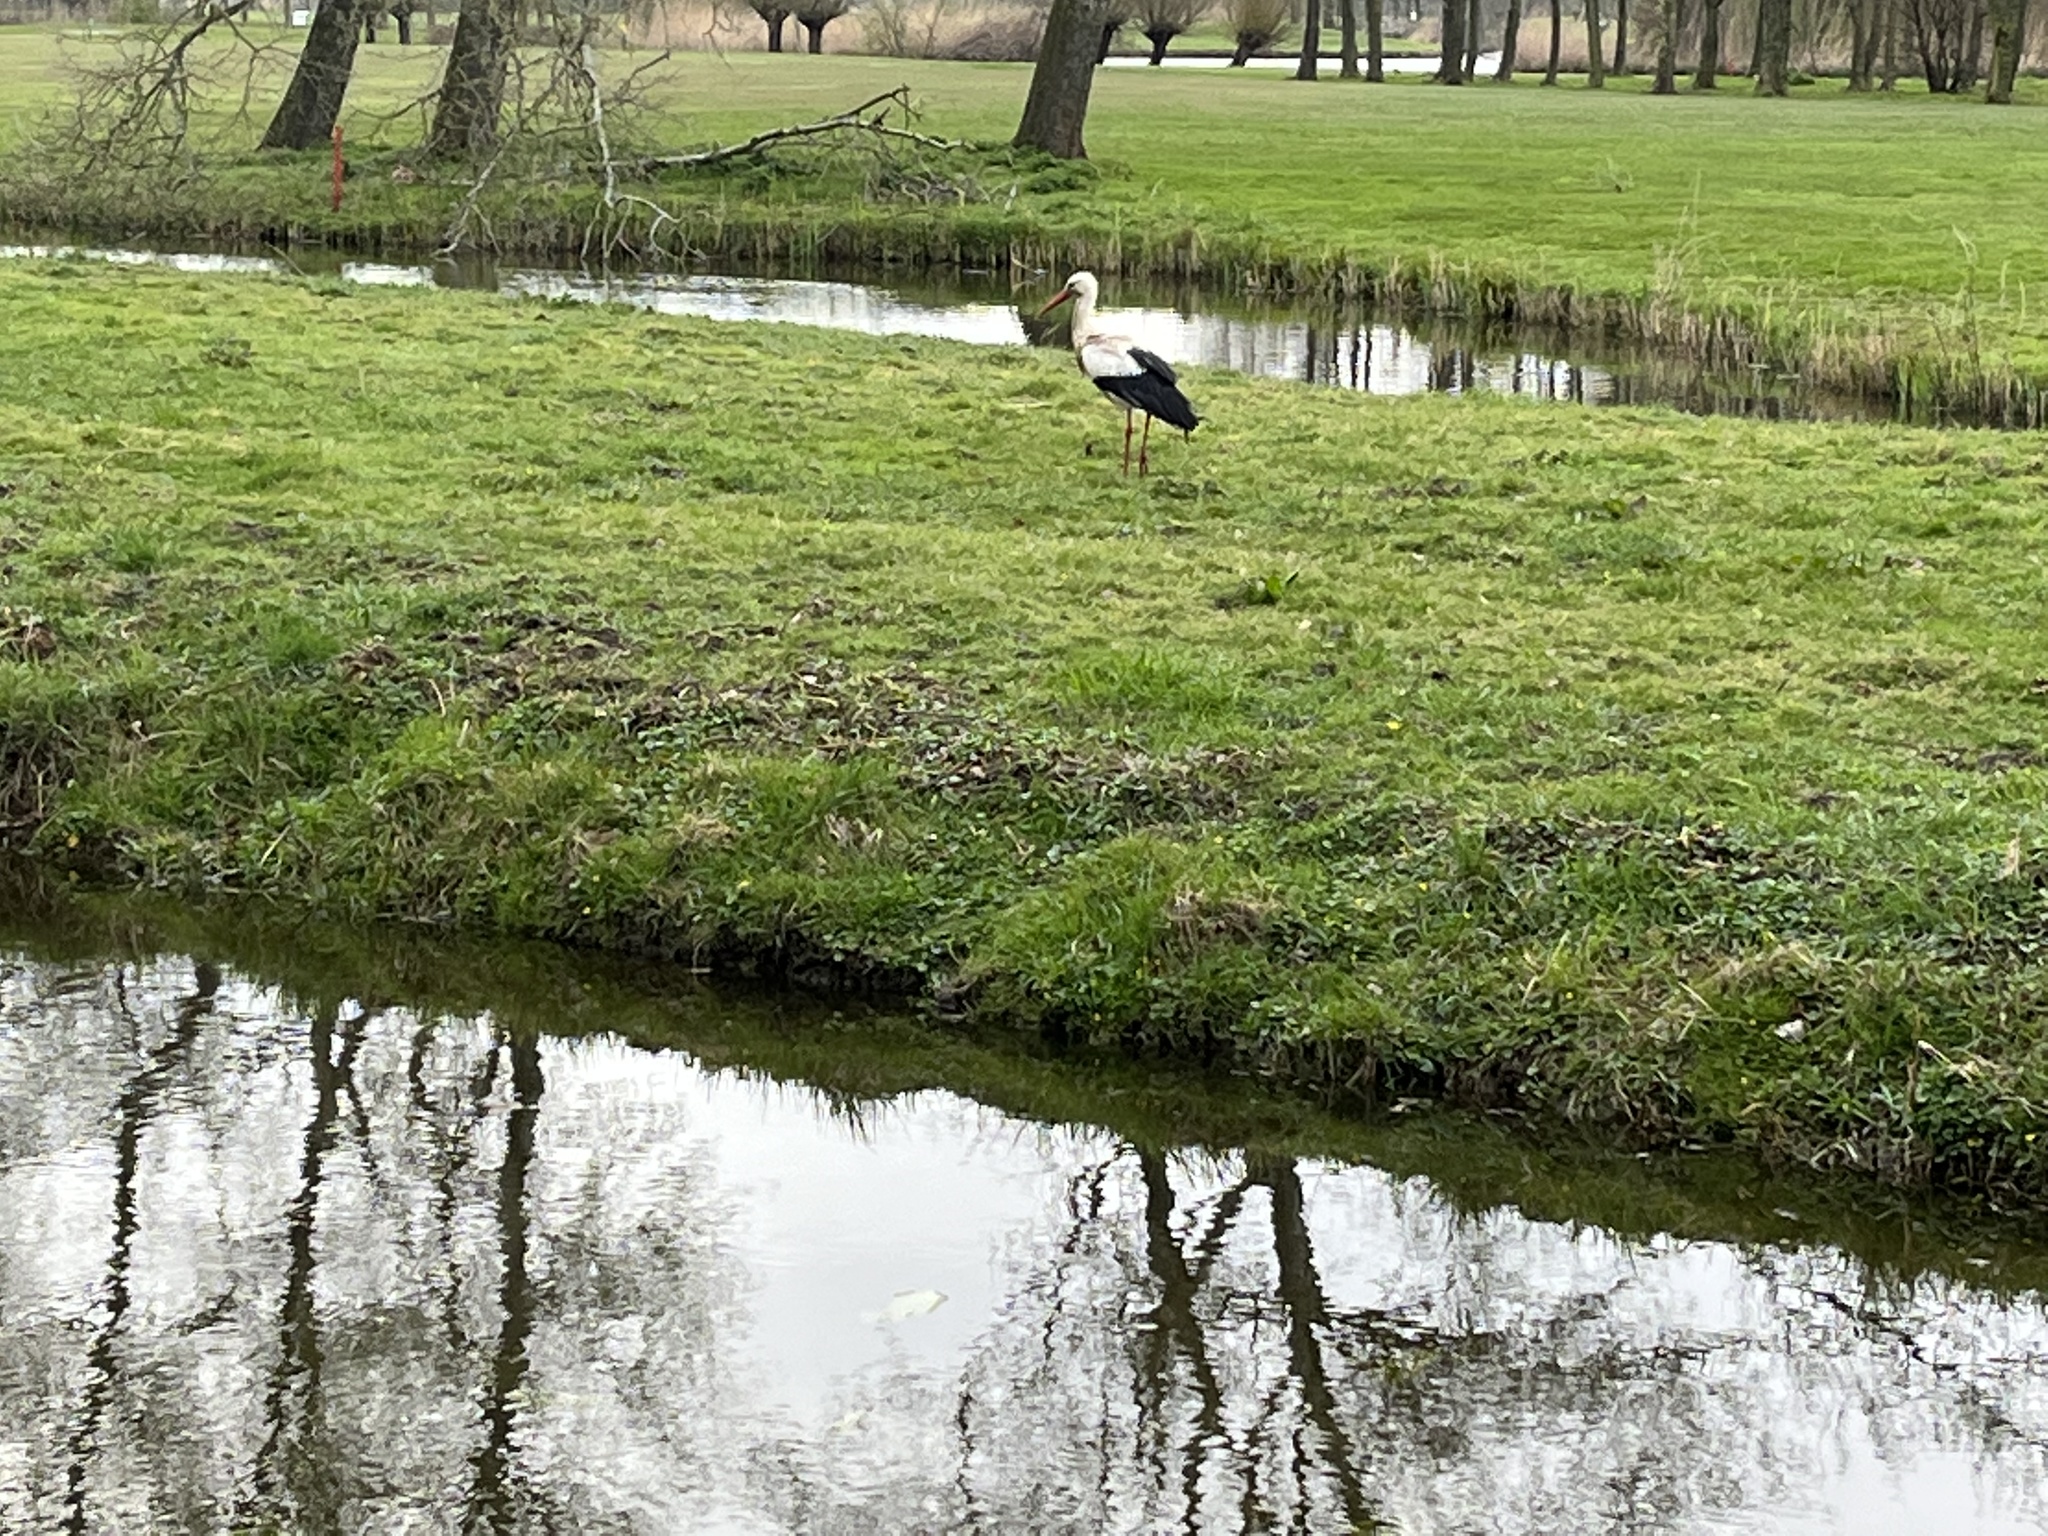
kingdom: Animalia
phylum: Chordata
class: Aves
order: Ciconiiformes
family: Ciconiidae
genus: Ciconia
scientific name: Ciconia ciconia
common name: White stork
